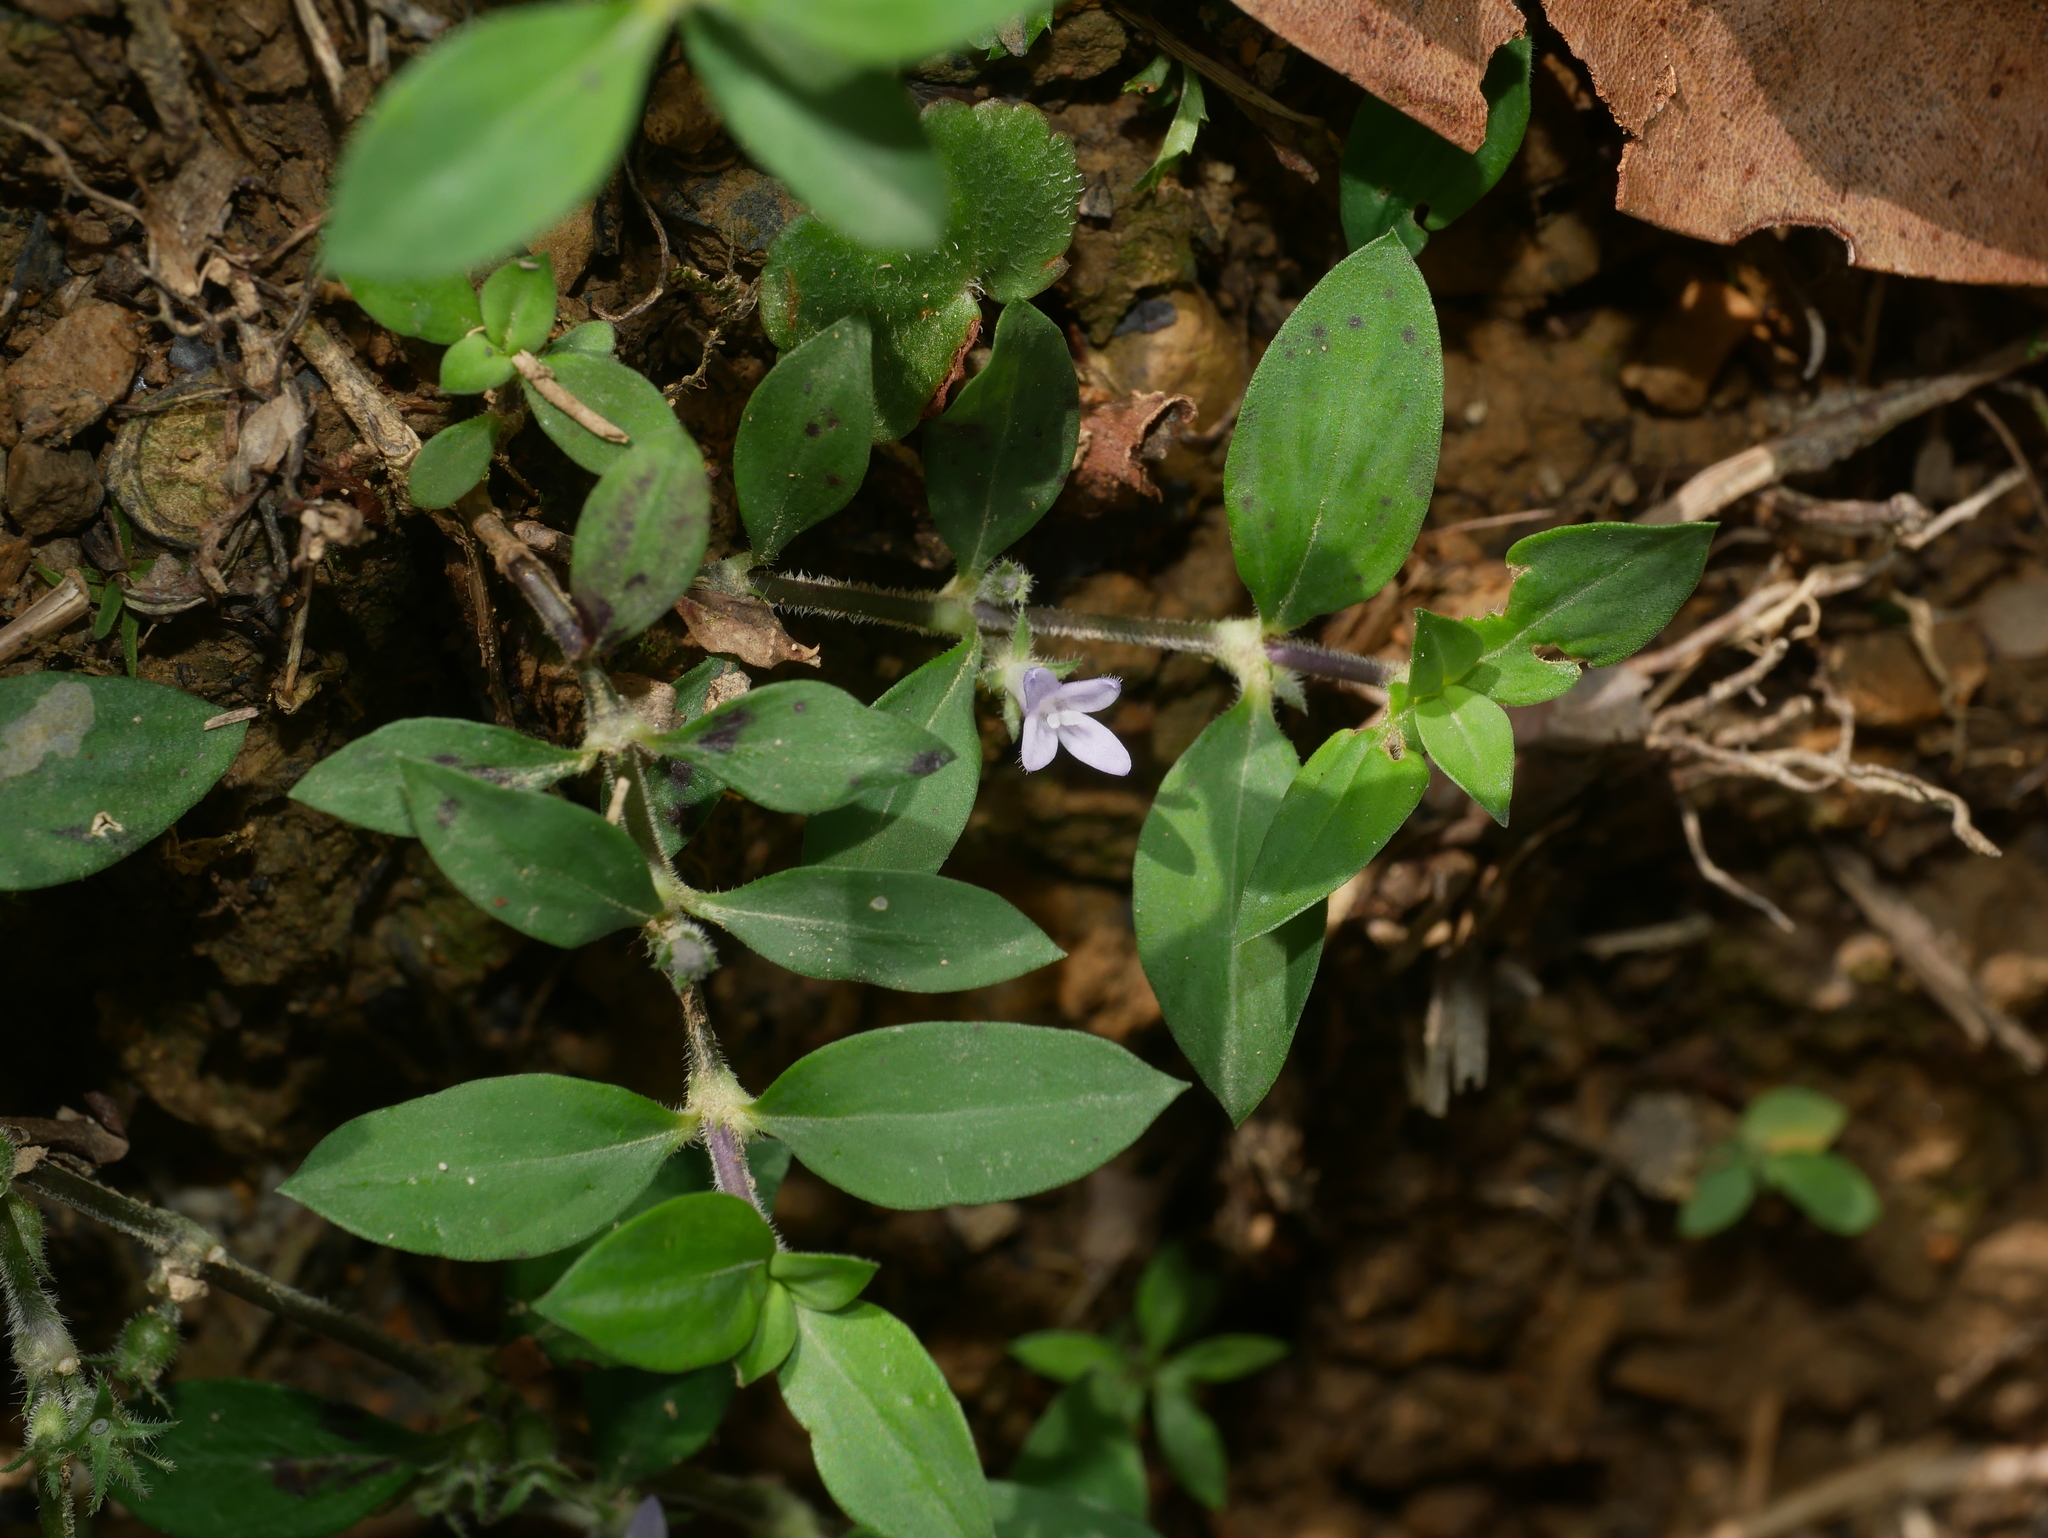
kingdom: Plantae
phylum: Tracheophyta
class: Magnoliopsida
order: Gentianales
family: Rubiaceae
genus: Exallage
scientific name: Exallage chrysotricha
